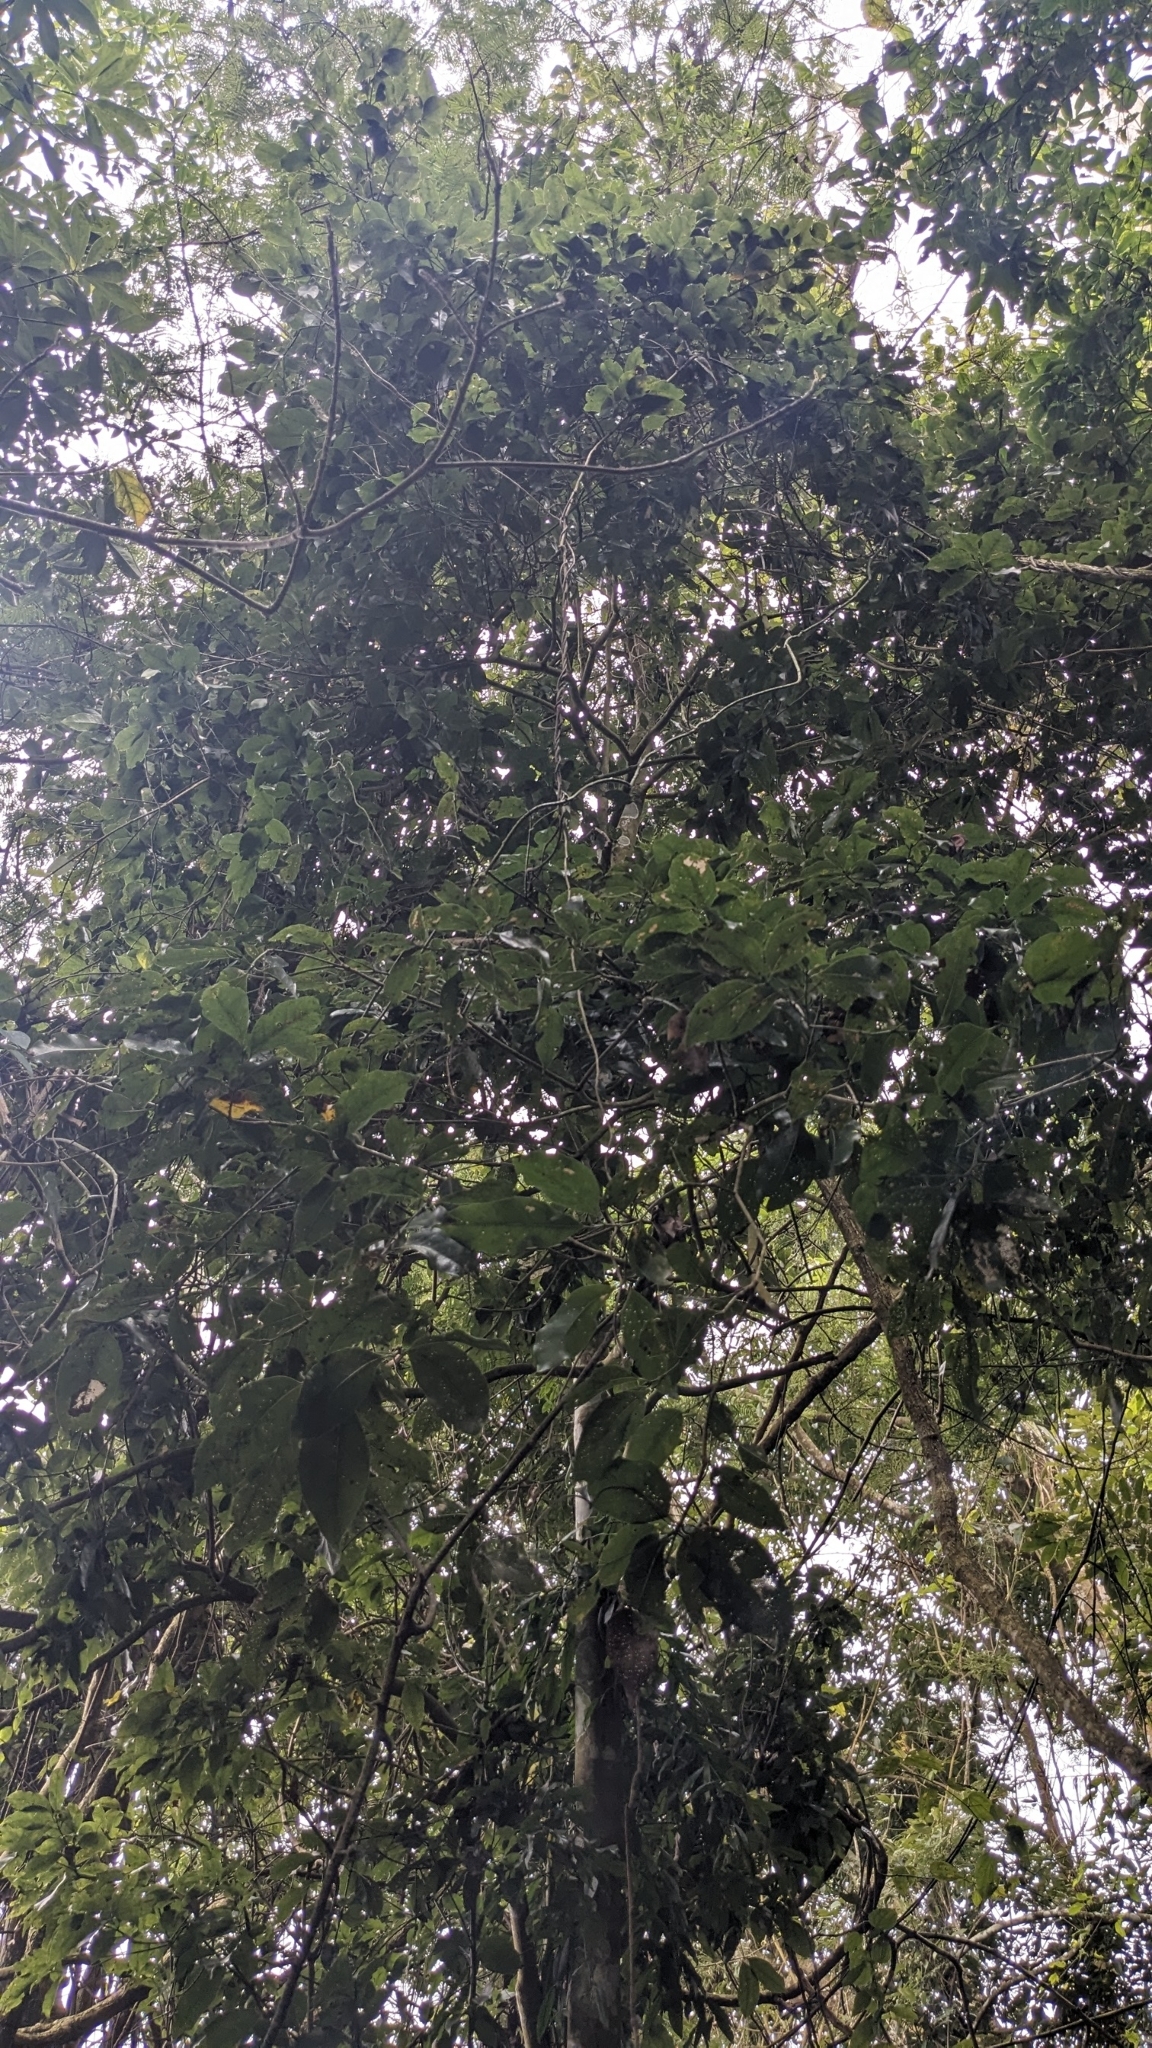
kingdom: Plantae
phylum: Tracheophyta
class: Magnoliopsida
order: Laurales
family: Lauraceae
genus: Beilschmiedia
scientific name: Beilschmiedia erythrophloia
